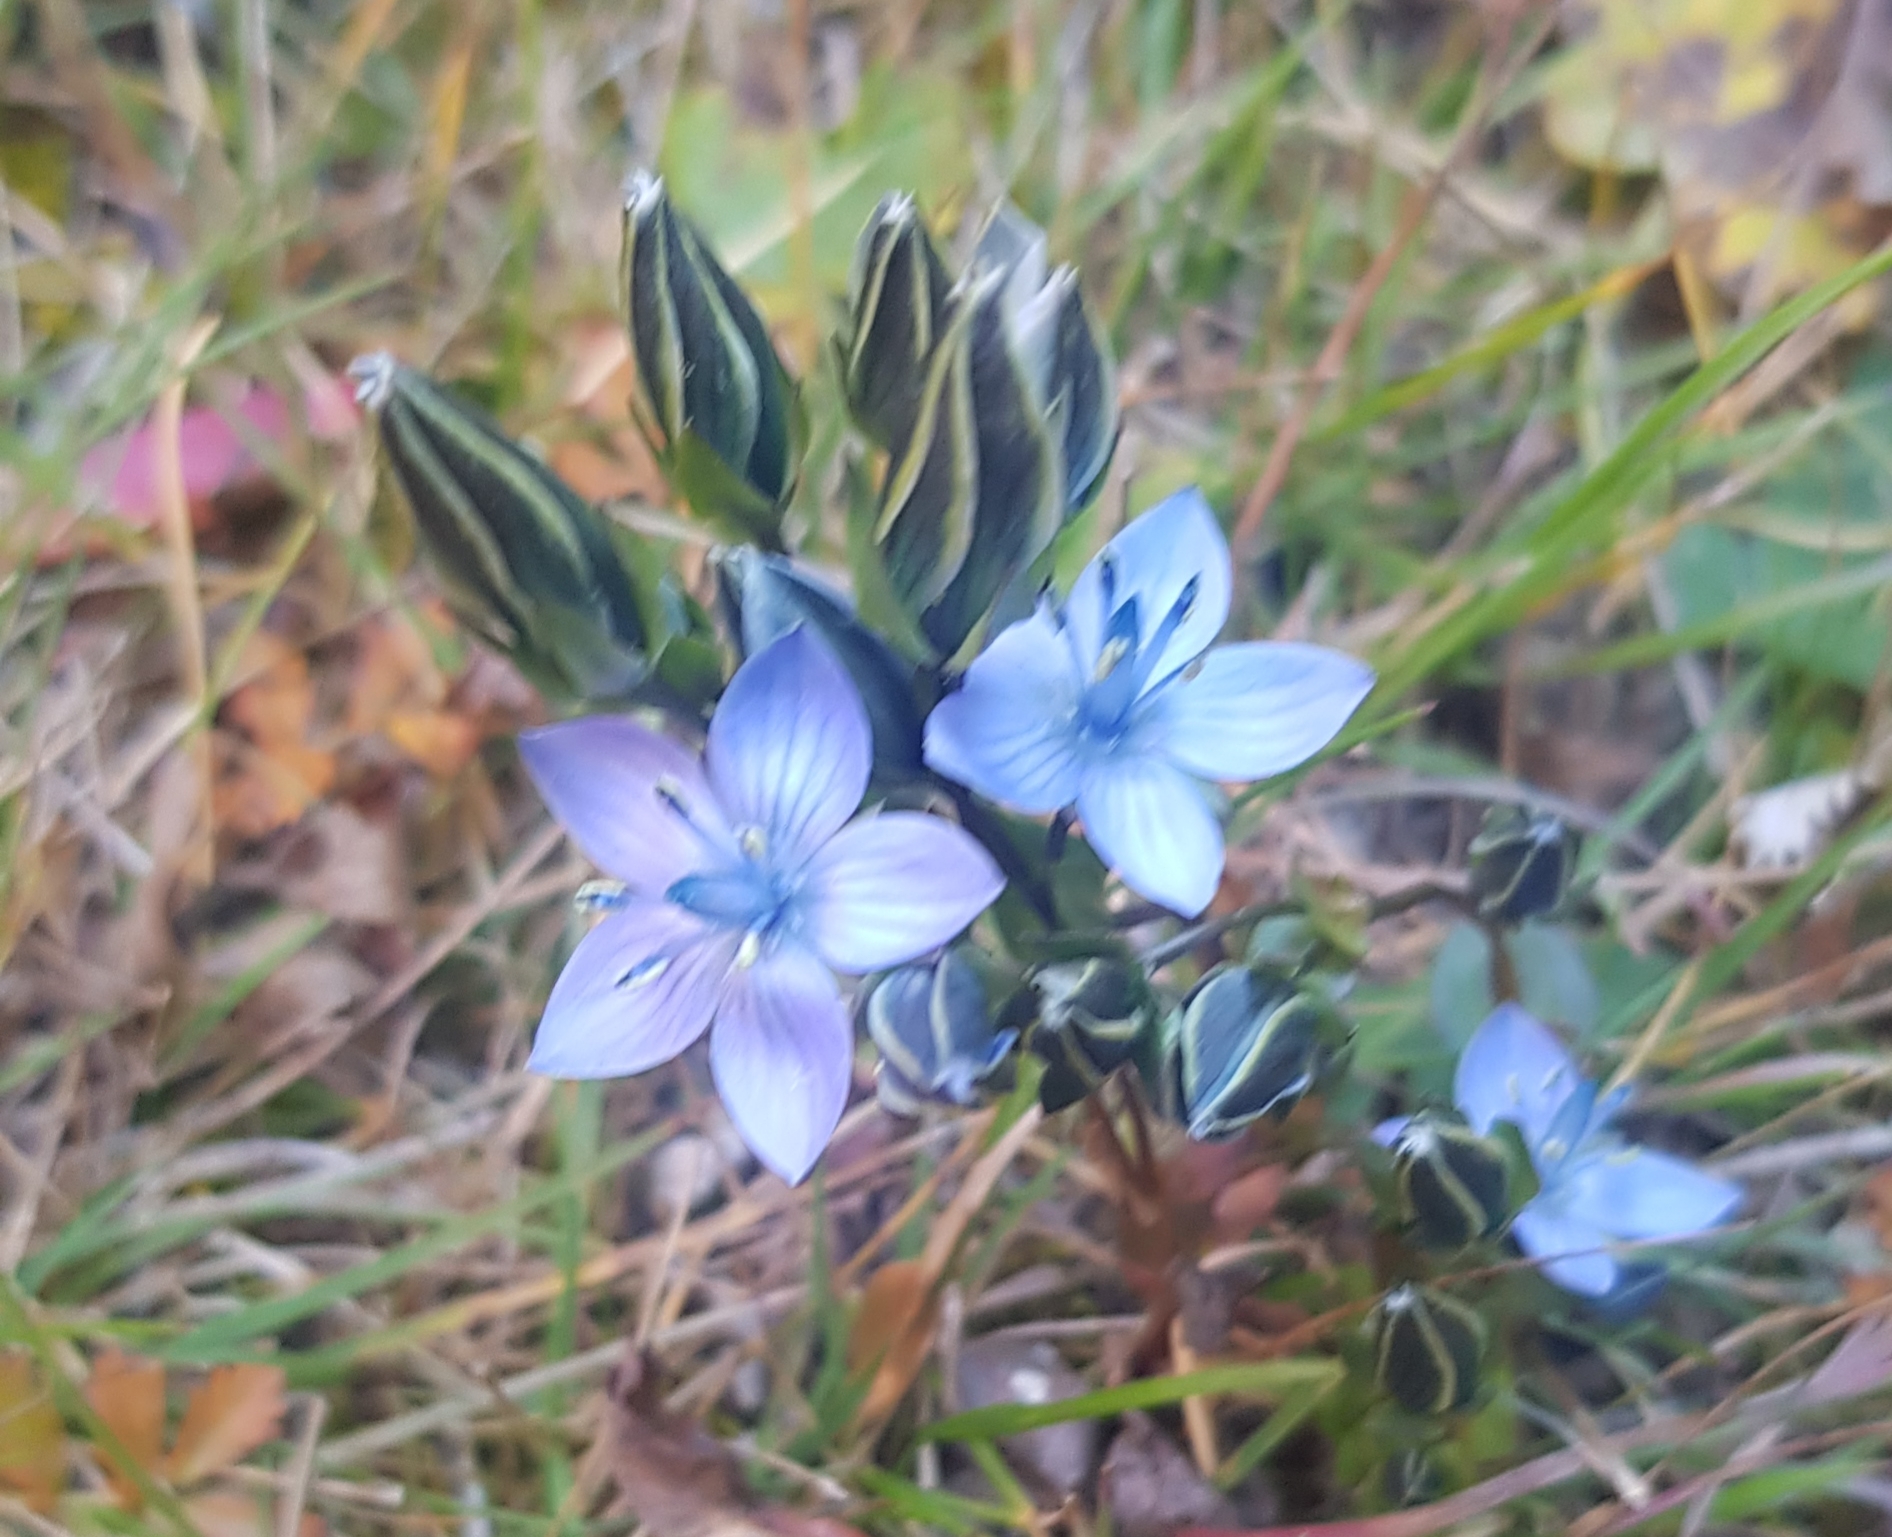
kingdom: Plantae
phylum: Tracheophyta
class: Magnoliopsida
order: Gentianales
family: Gentianaceae
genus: Lomatogonium
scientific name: Lomatogonium carinthiacum
